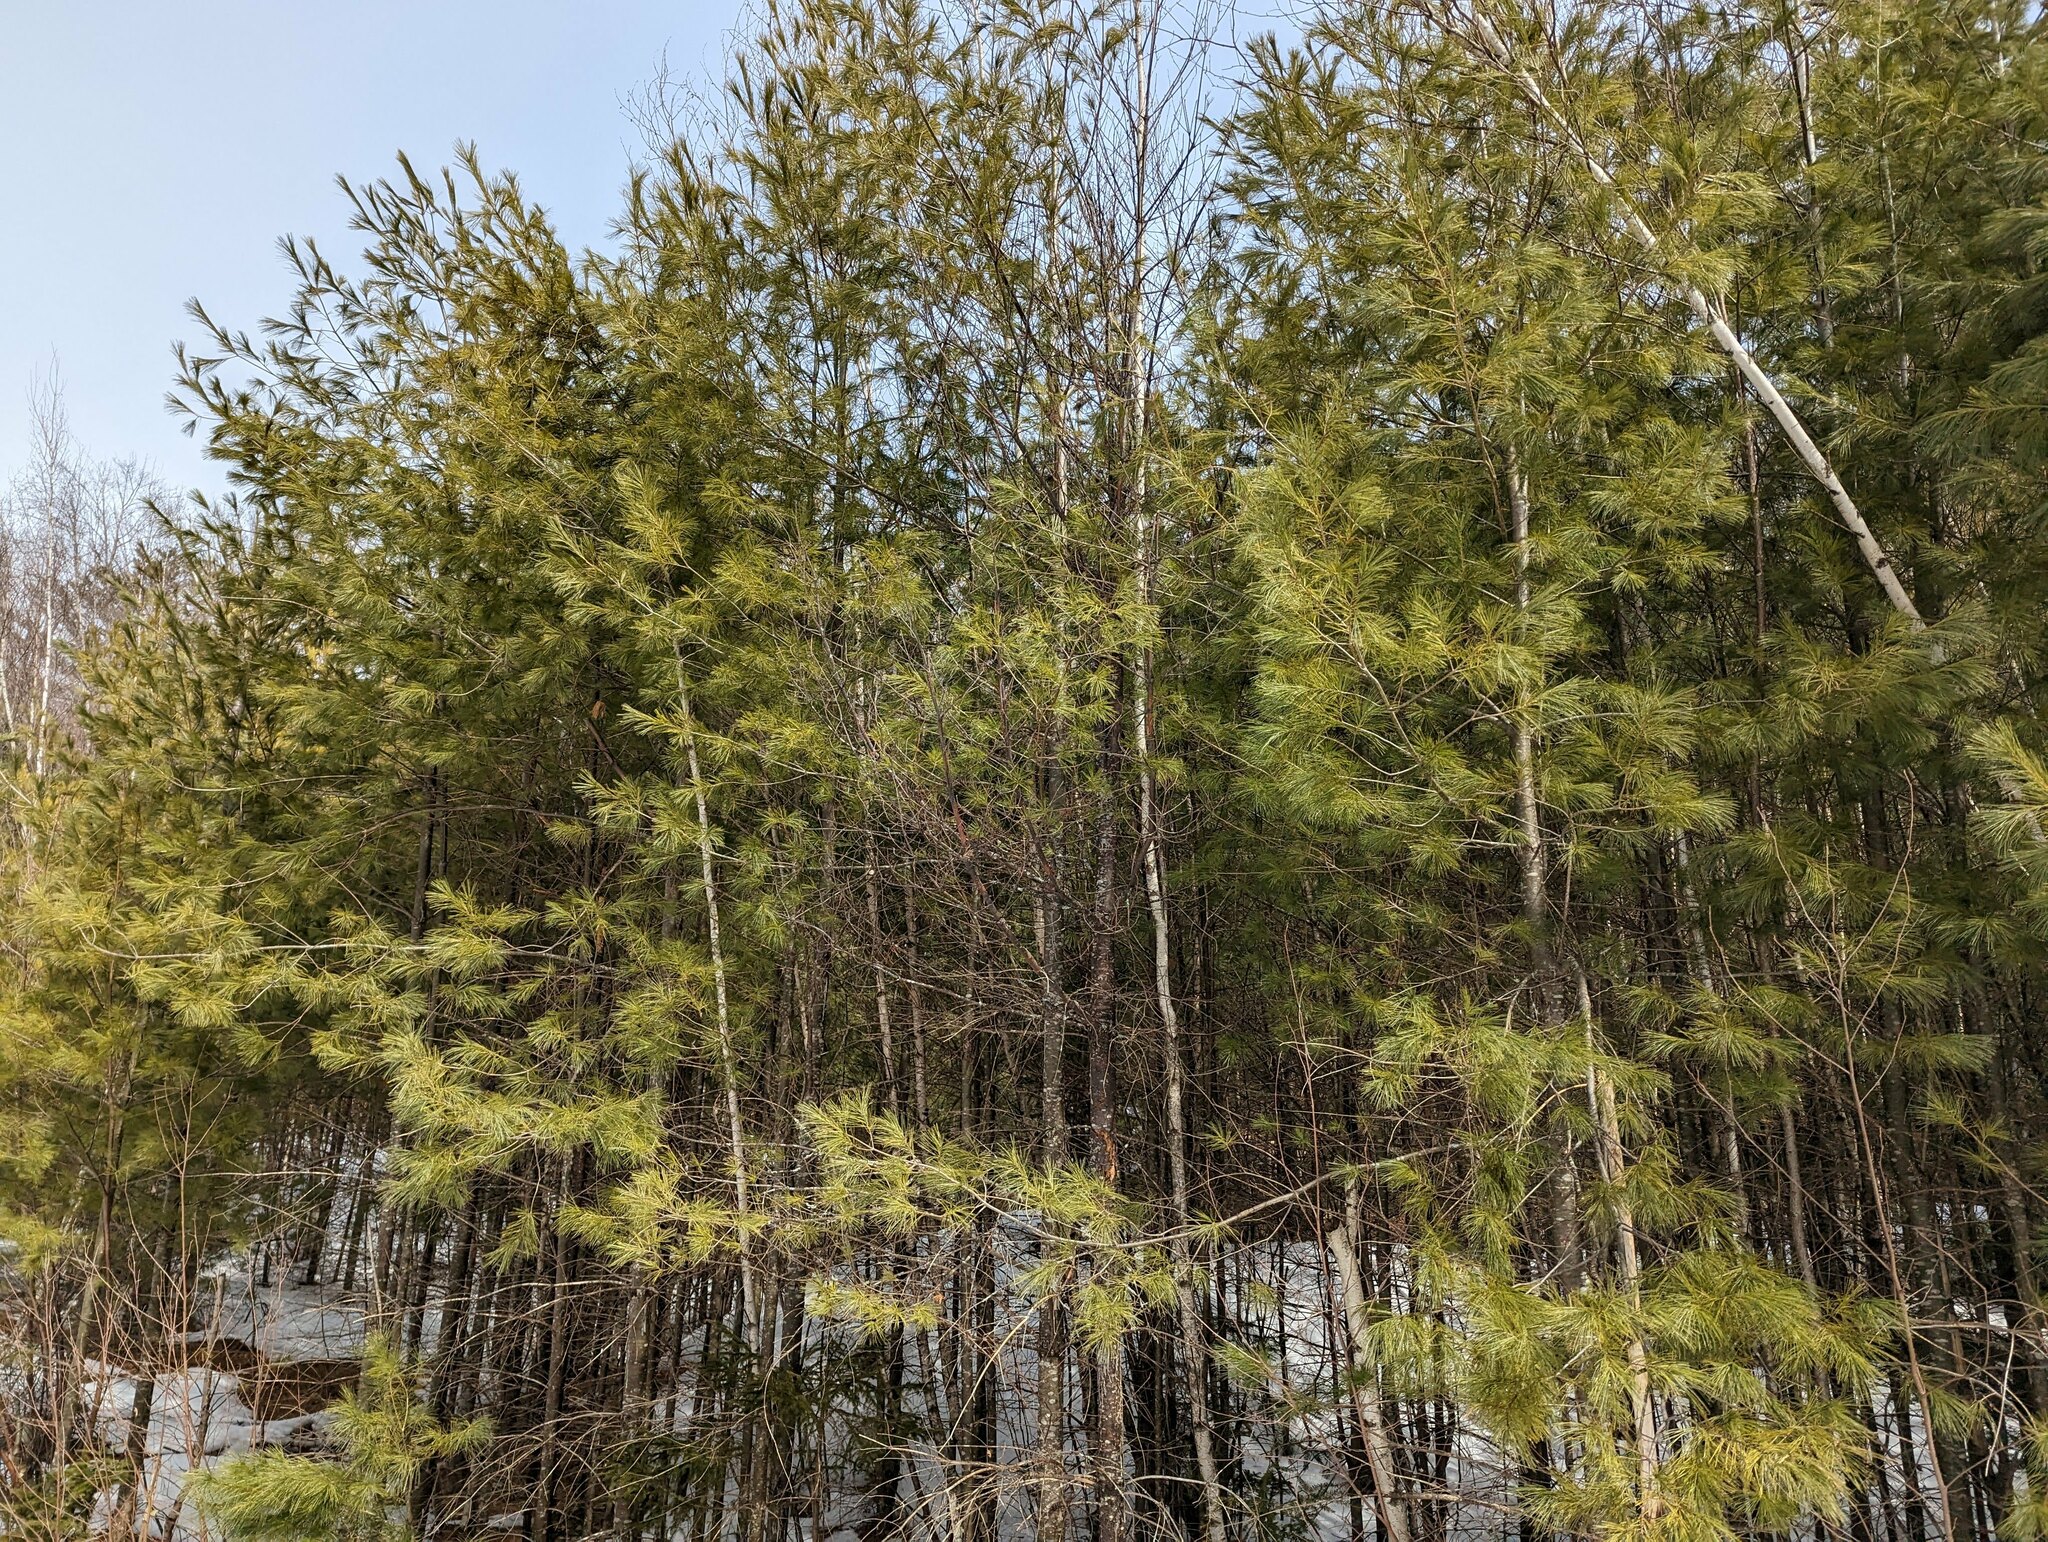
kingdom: Plantae
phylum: Tracheophyta
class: Pinopsida
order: Pinales
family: Pinaceae
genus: Pinus
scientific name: Pinus strobus
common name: Weymouth pine
